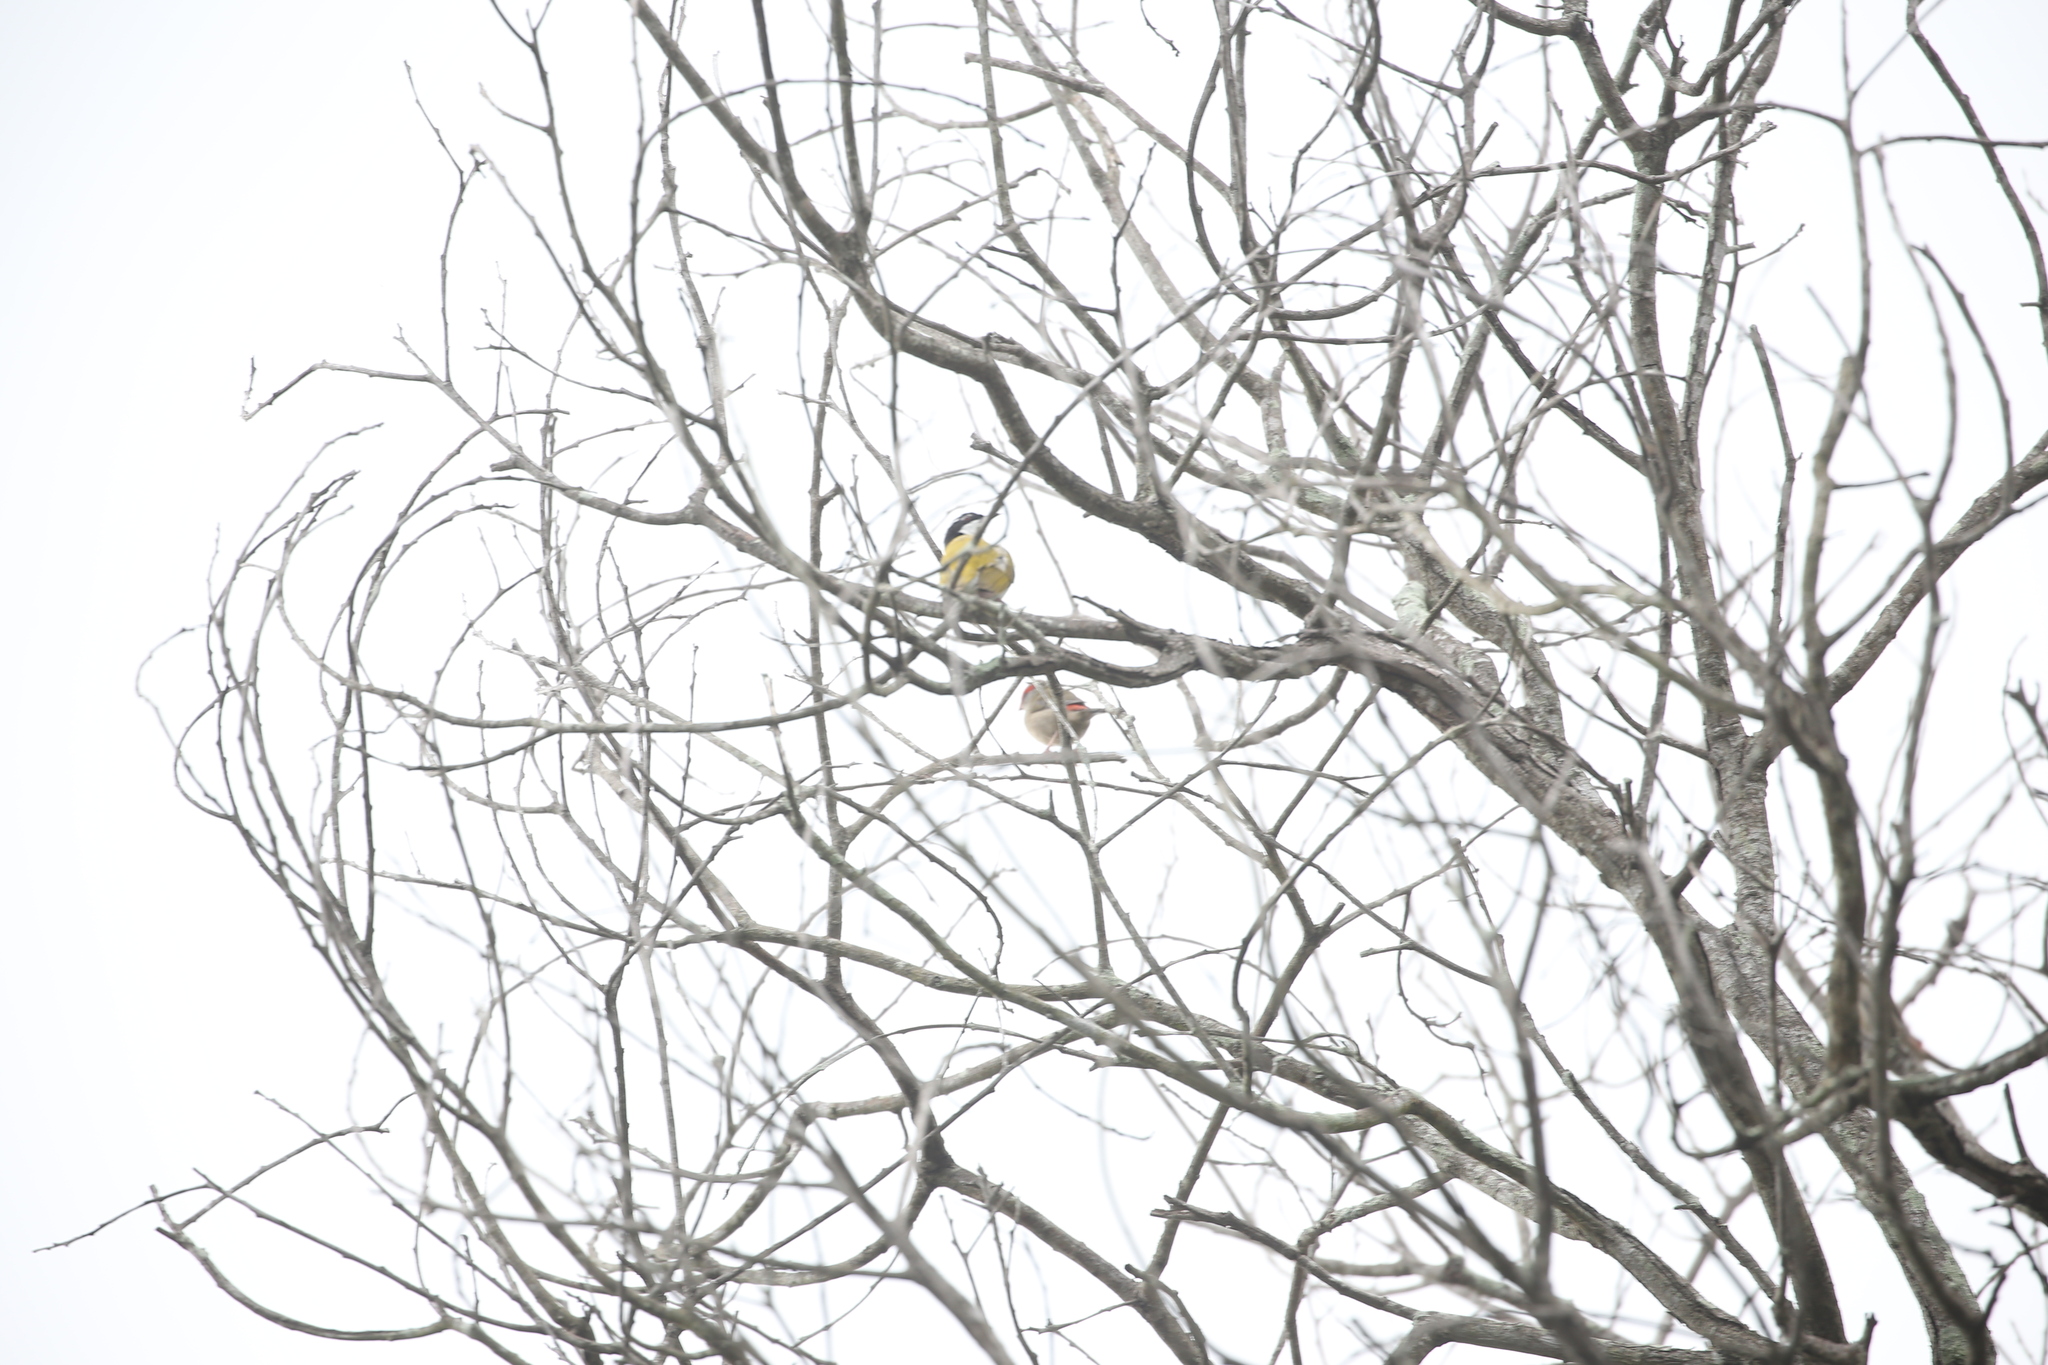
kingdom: Animalia
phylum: Chordata
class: Aves
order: Passeriformes
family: Meliphagidae
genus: Melithreptus
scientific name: Melithreptus albogularis
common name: White-throated honeyeater
